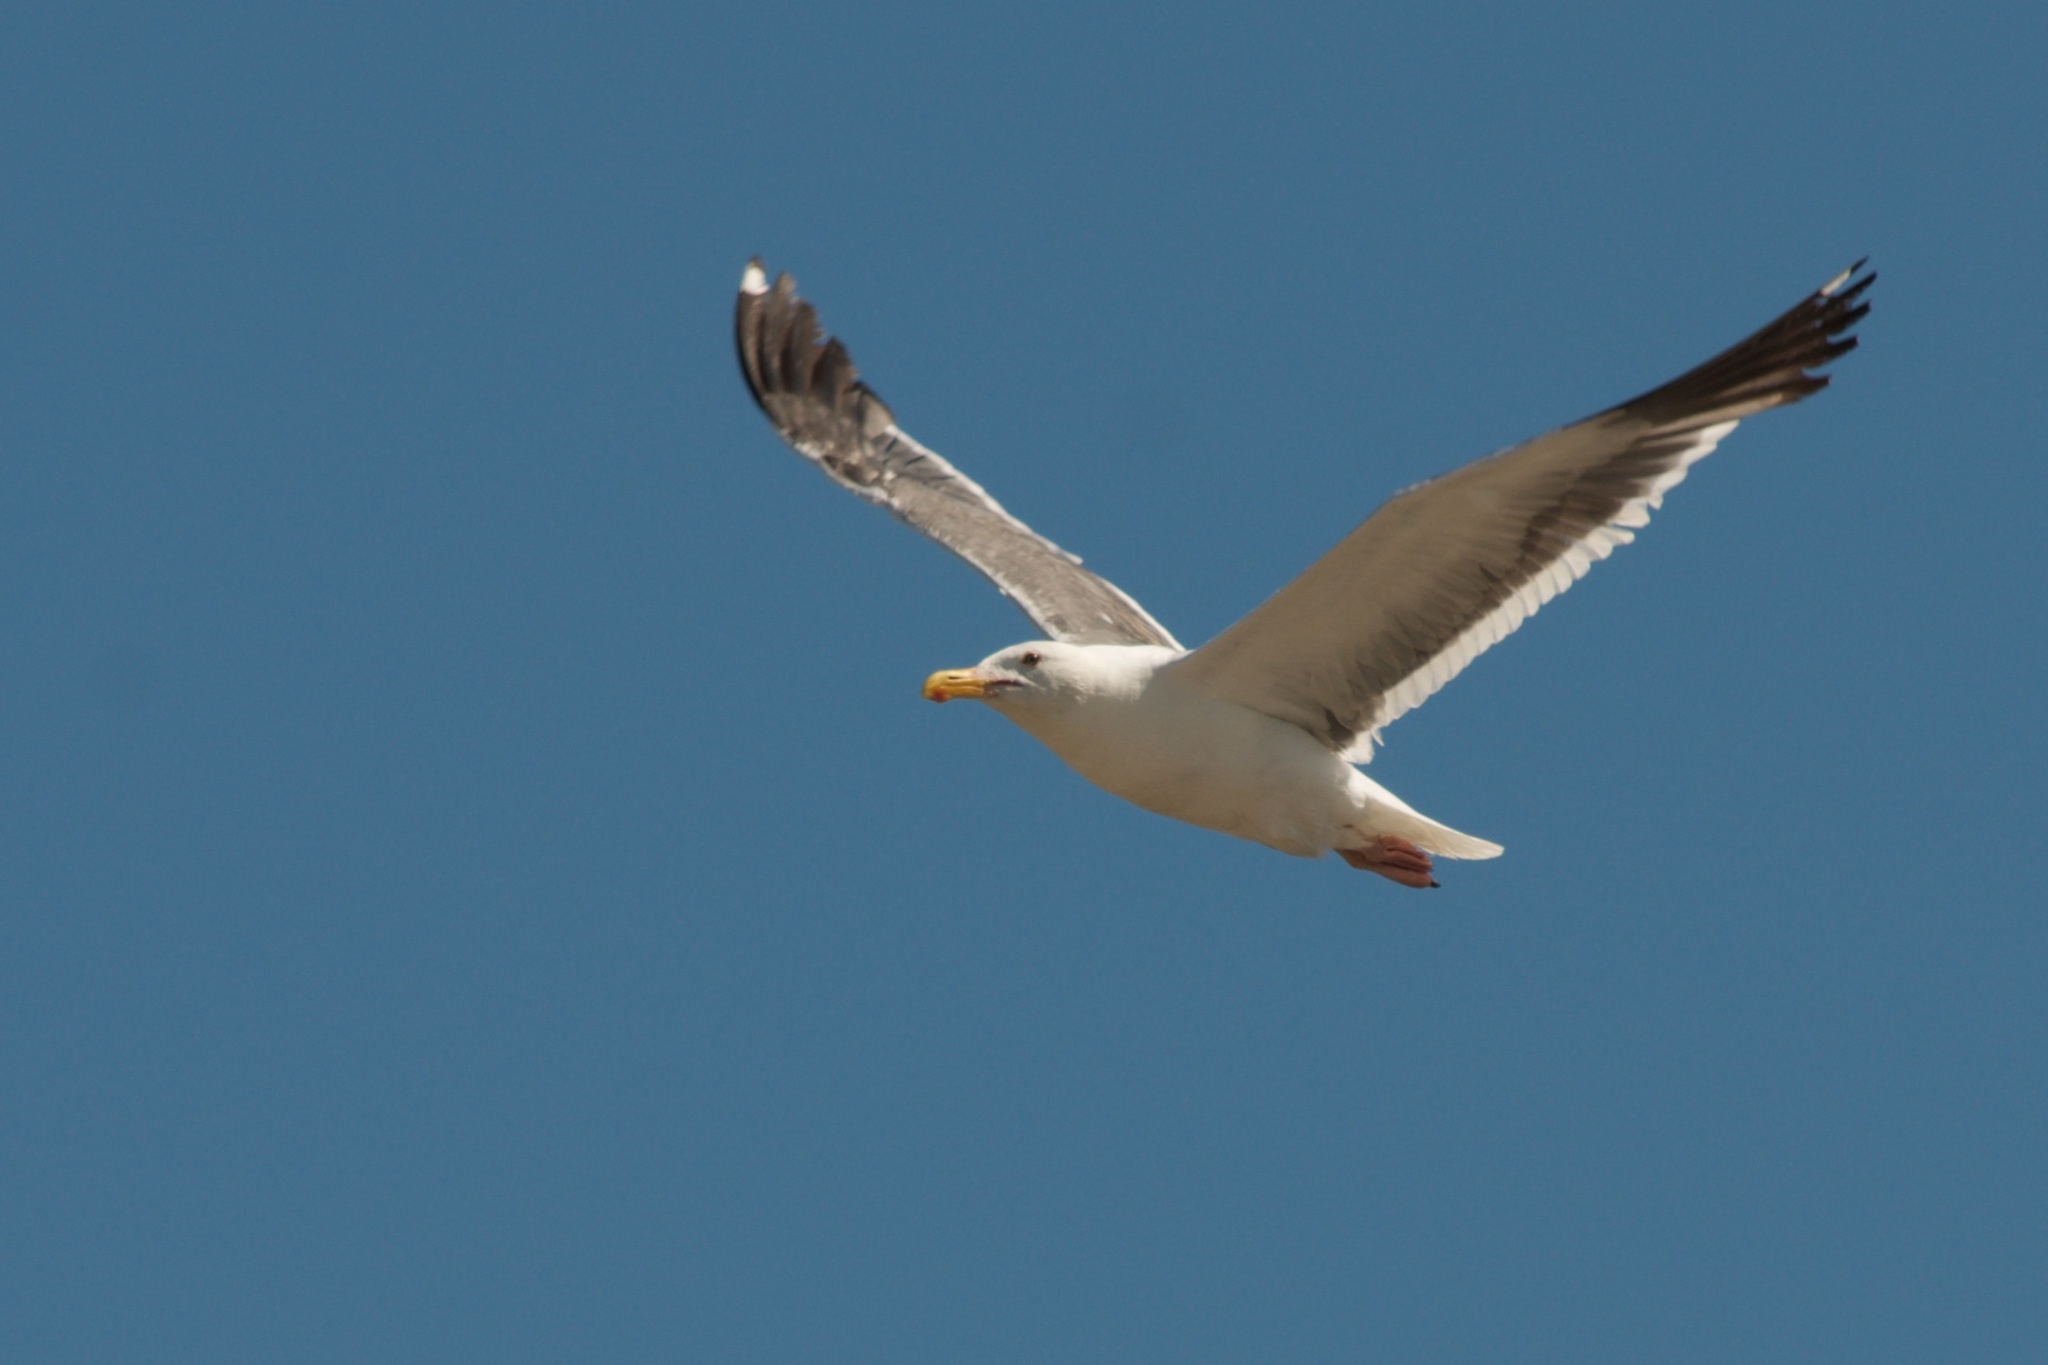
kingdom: Animalia
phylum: Chordata
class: Aves
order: Charadriiformes
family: Laridae
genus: Larus
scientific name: Larus occidentalis
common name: Western gull
